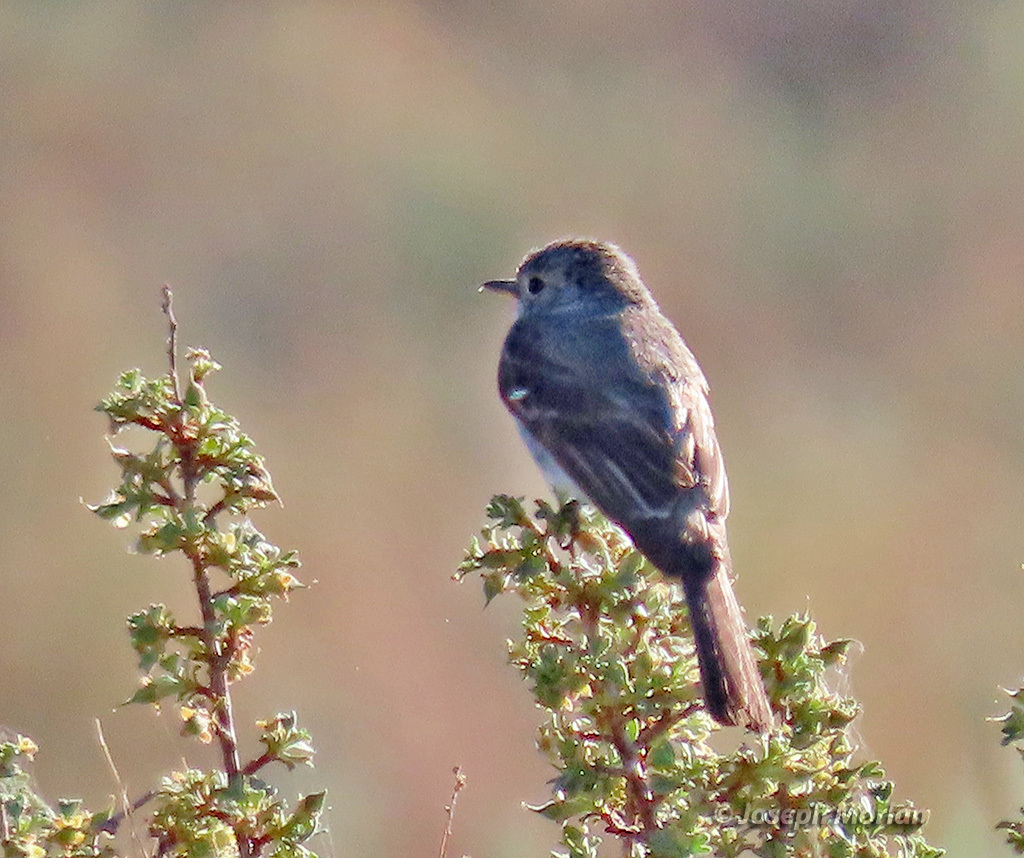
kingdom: Animalia
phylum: Chordata
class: Aves
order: Passeriformes
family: Tyrannidae
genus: Empidonax
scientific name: Empidonax wrightii
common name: Gray flycatcher
